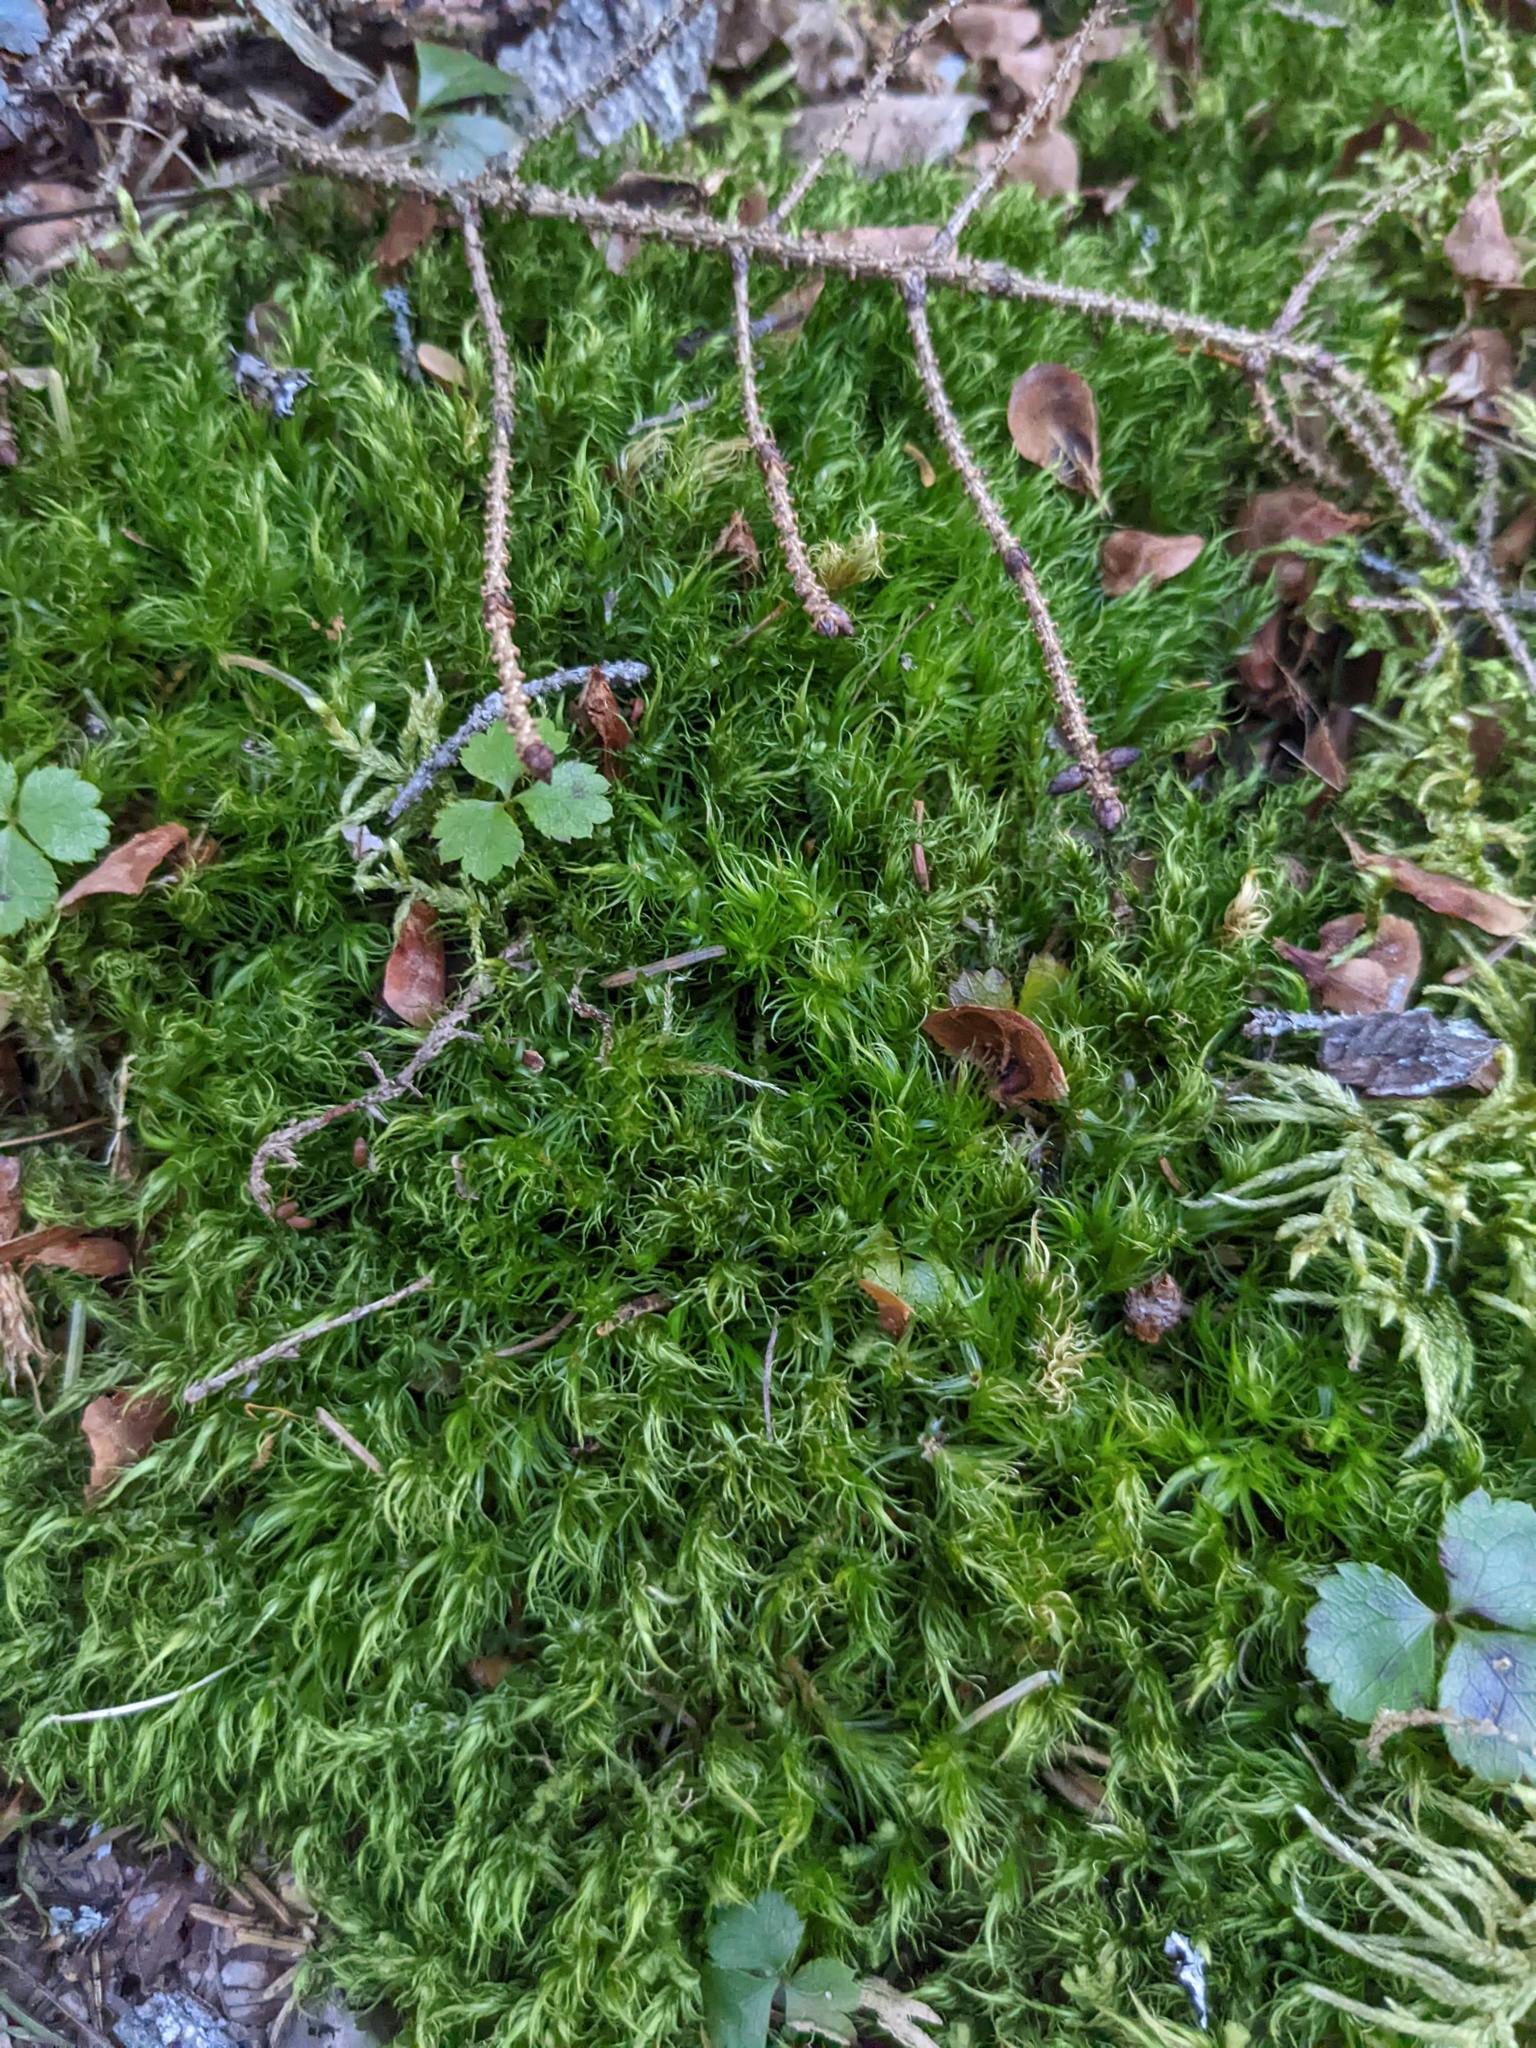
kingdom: Plantae
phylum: Tracheophyta
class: Magnoliopsida
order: Ranunculales
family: Ranunculaceae
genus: Coptis
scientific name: Coptis trifolia
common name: Canker-root
